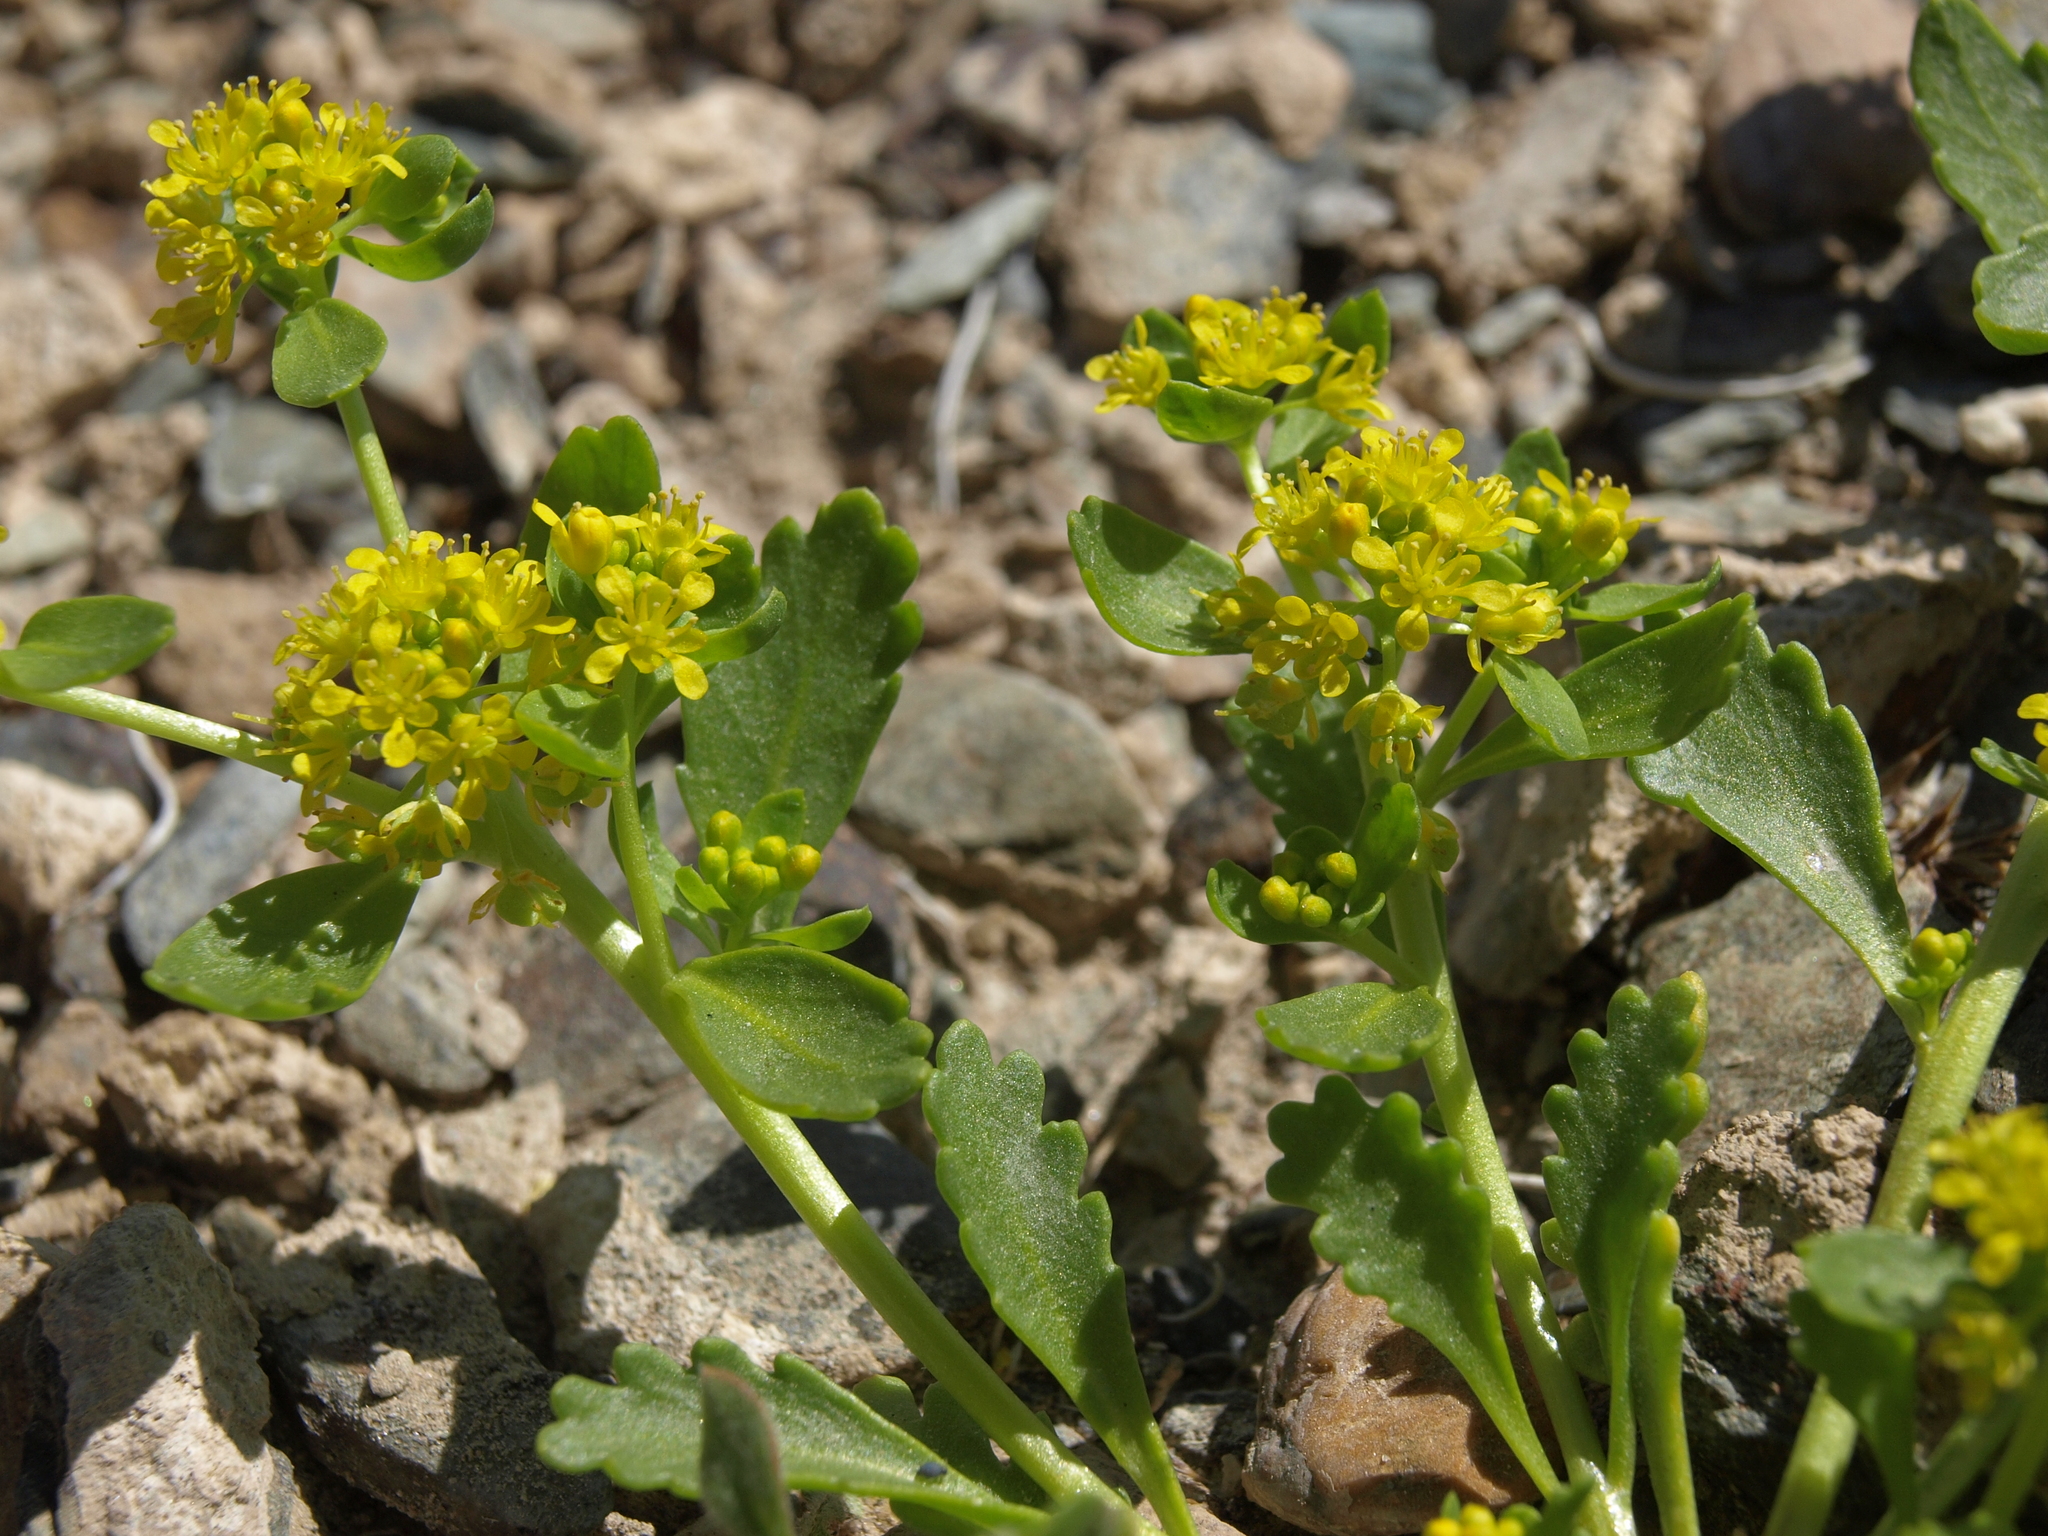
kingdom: Plantae
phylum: Tracheophyta
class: Magnoliopsida
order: Brassicales
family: Brassicaceae
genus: Lepidium
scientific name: Lepidium flavum
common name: Yellow pepperwort
